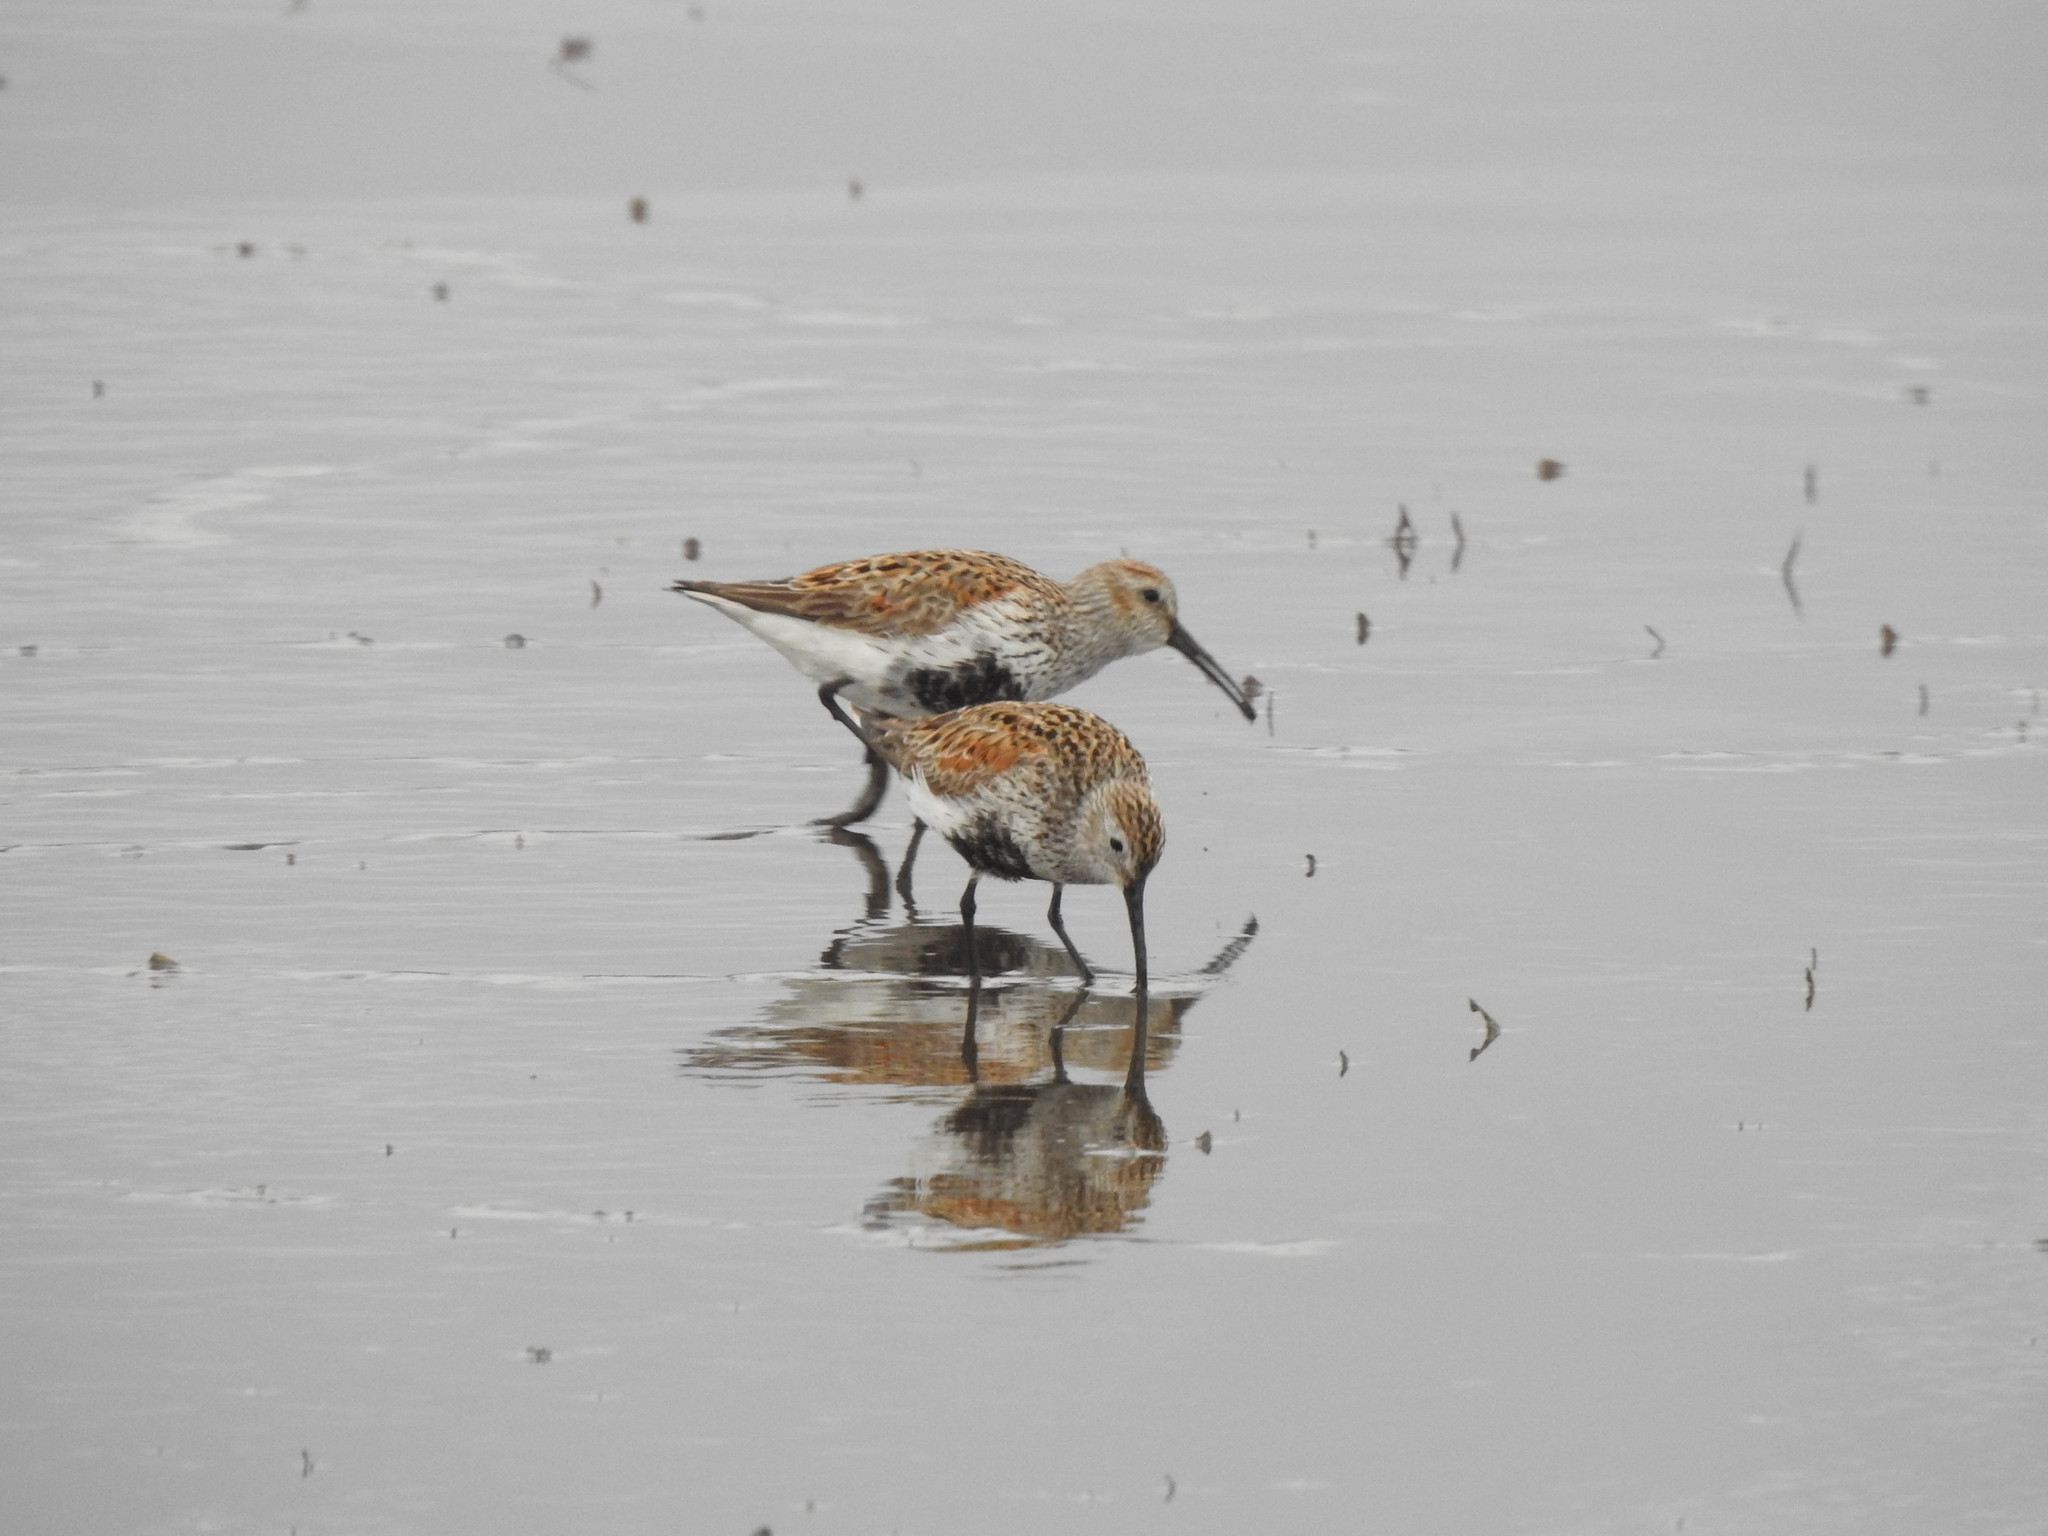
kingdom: Animalia
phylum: Chordata
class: Aves
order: Charadriiformes
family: Scolopacidae
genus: Calidris
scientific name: Calidris alpina
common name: Dunlin
